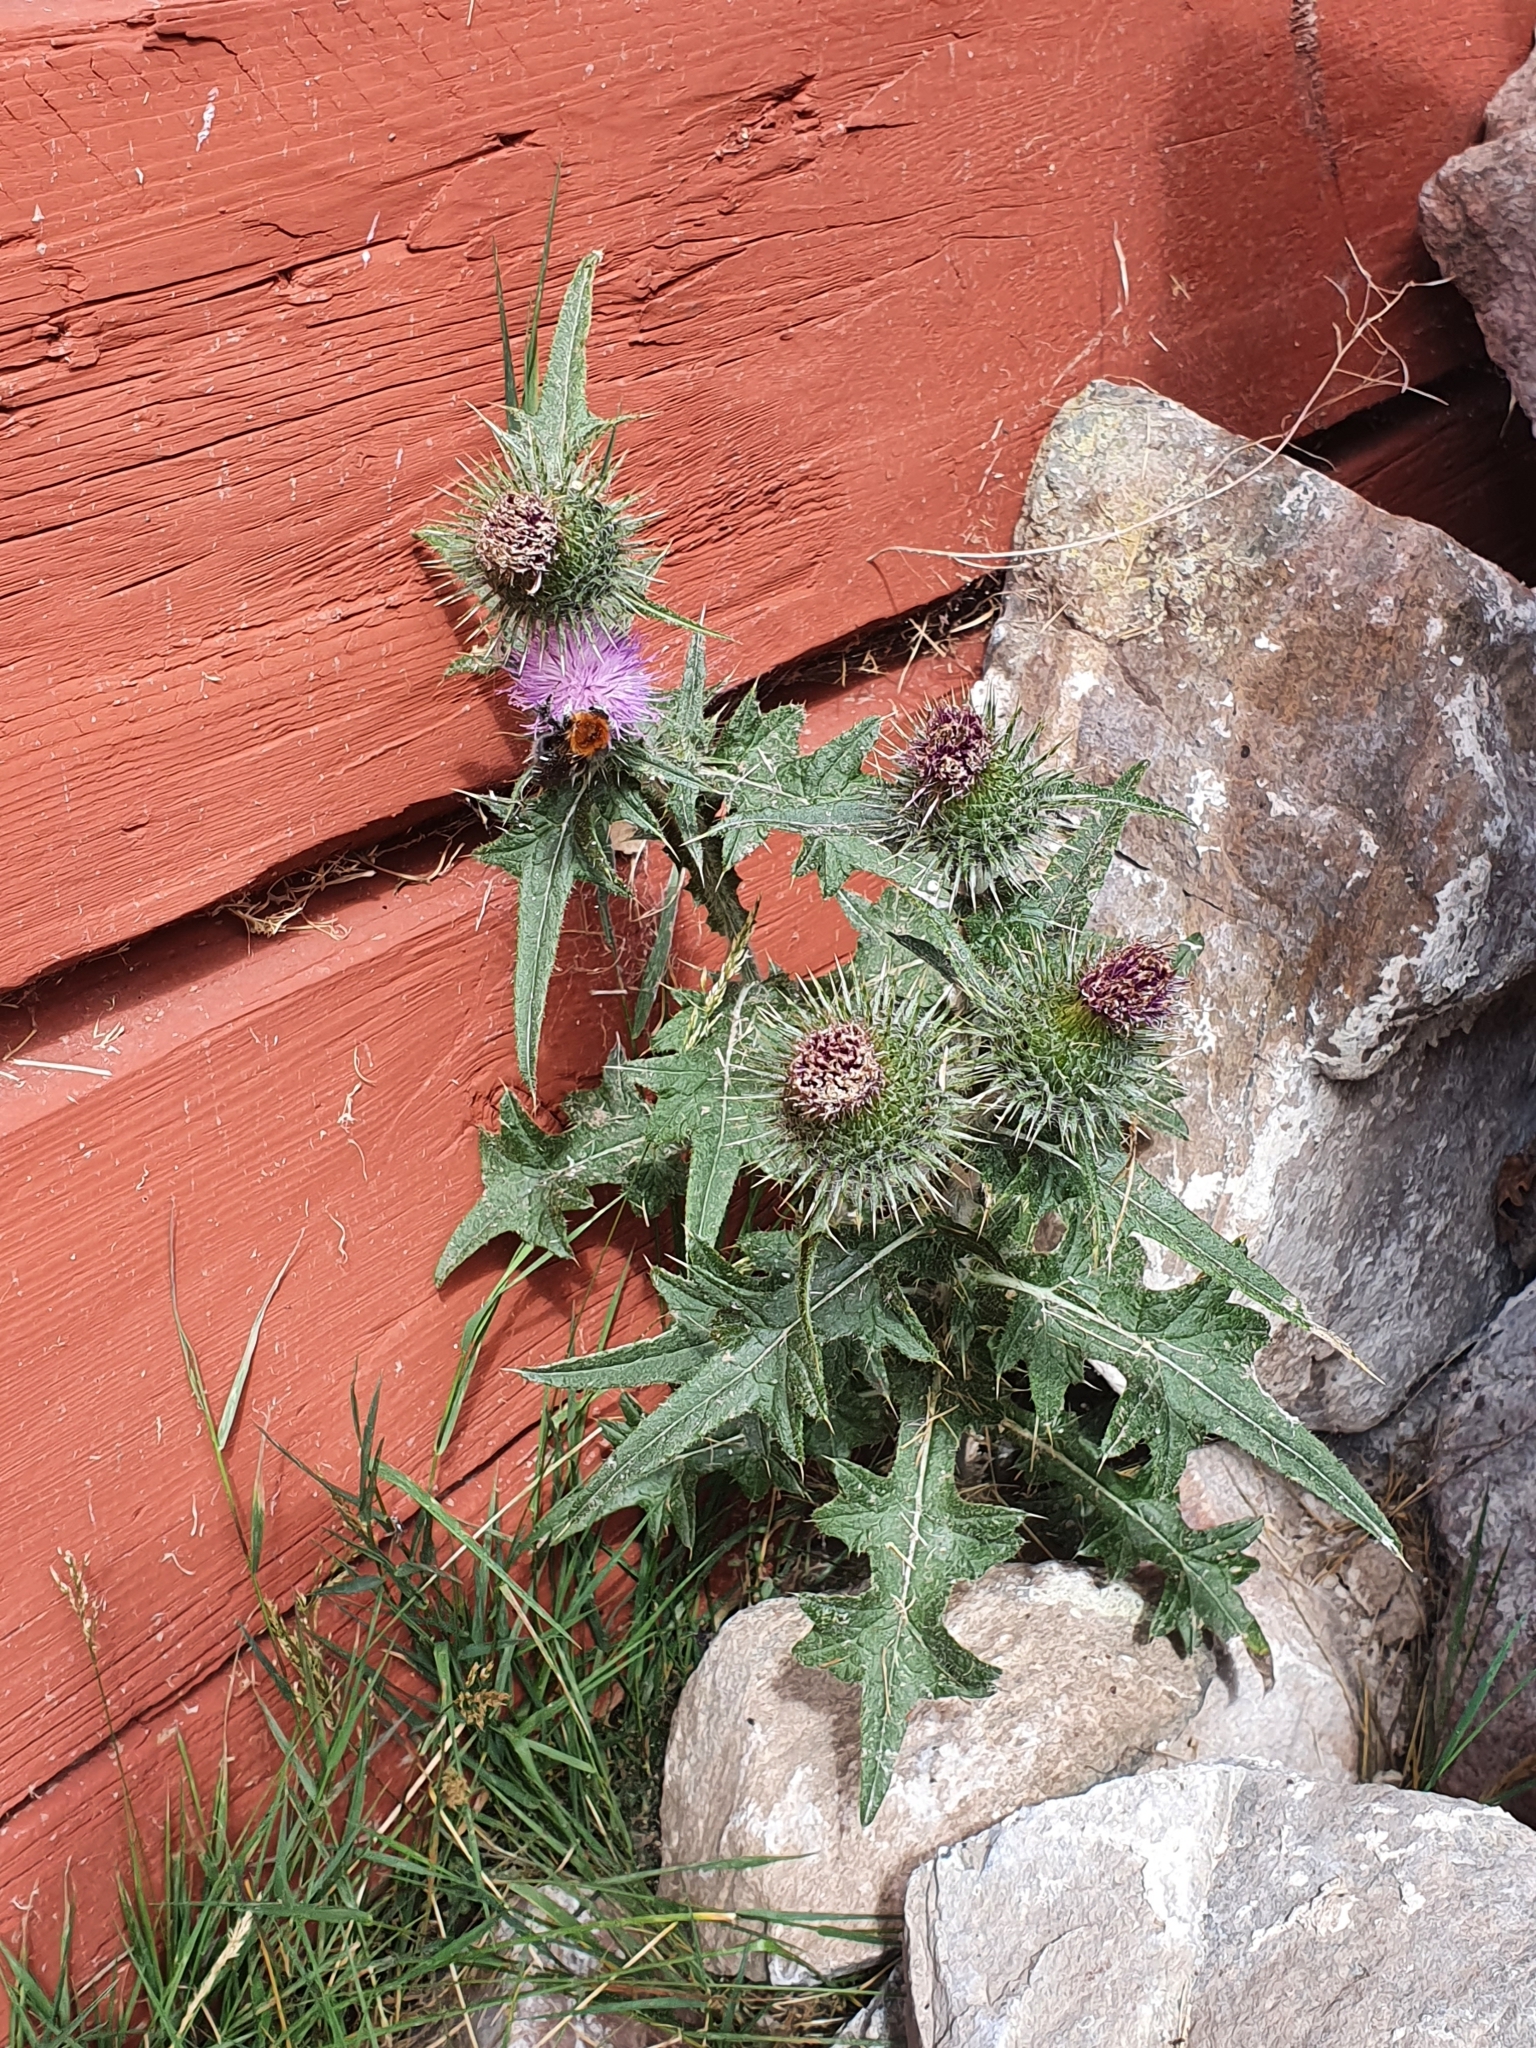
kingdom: Plantae
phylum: Tracheophyta
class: Magnoliopsida
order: Asterales
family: Asteraceae
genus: Cirsium
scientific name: Cirsium vulgare
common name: Bull thistle
